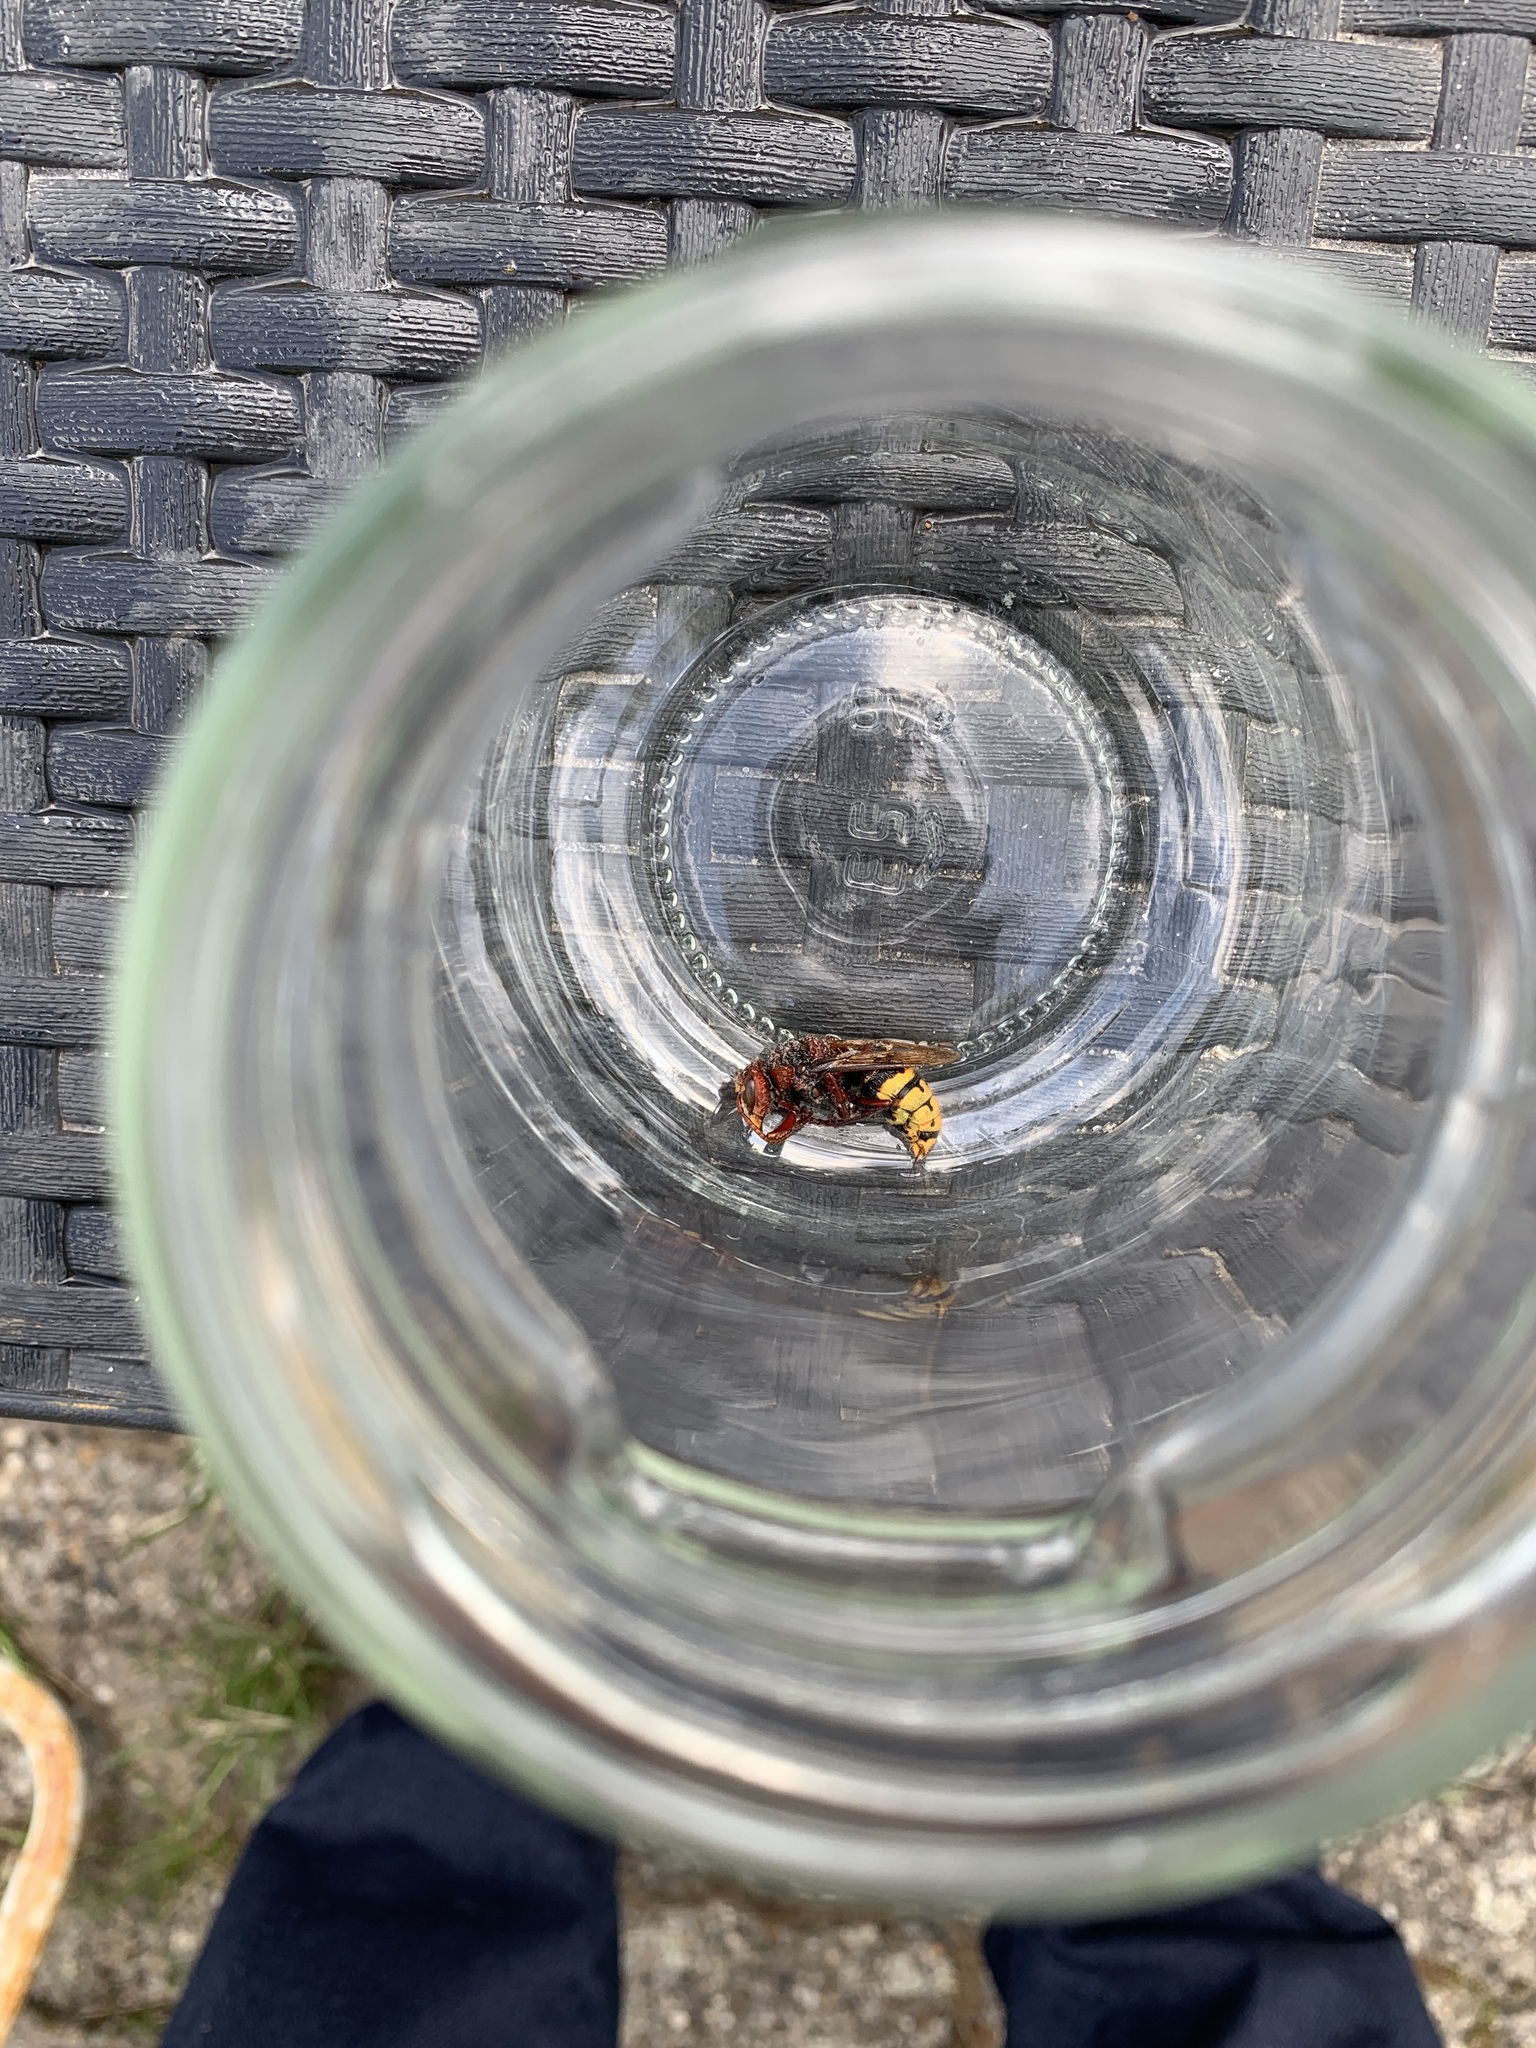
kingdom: Animalia
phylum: Arthropoda
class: Insecta
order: Hymenoptera
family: Vespidae
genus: Vespa
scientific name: Vespa crabro
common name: Hornet
